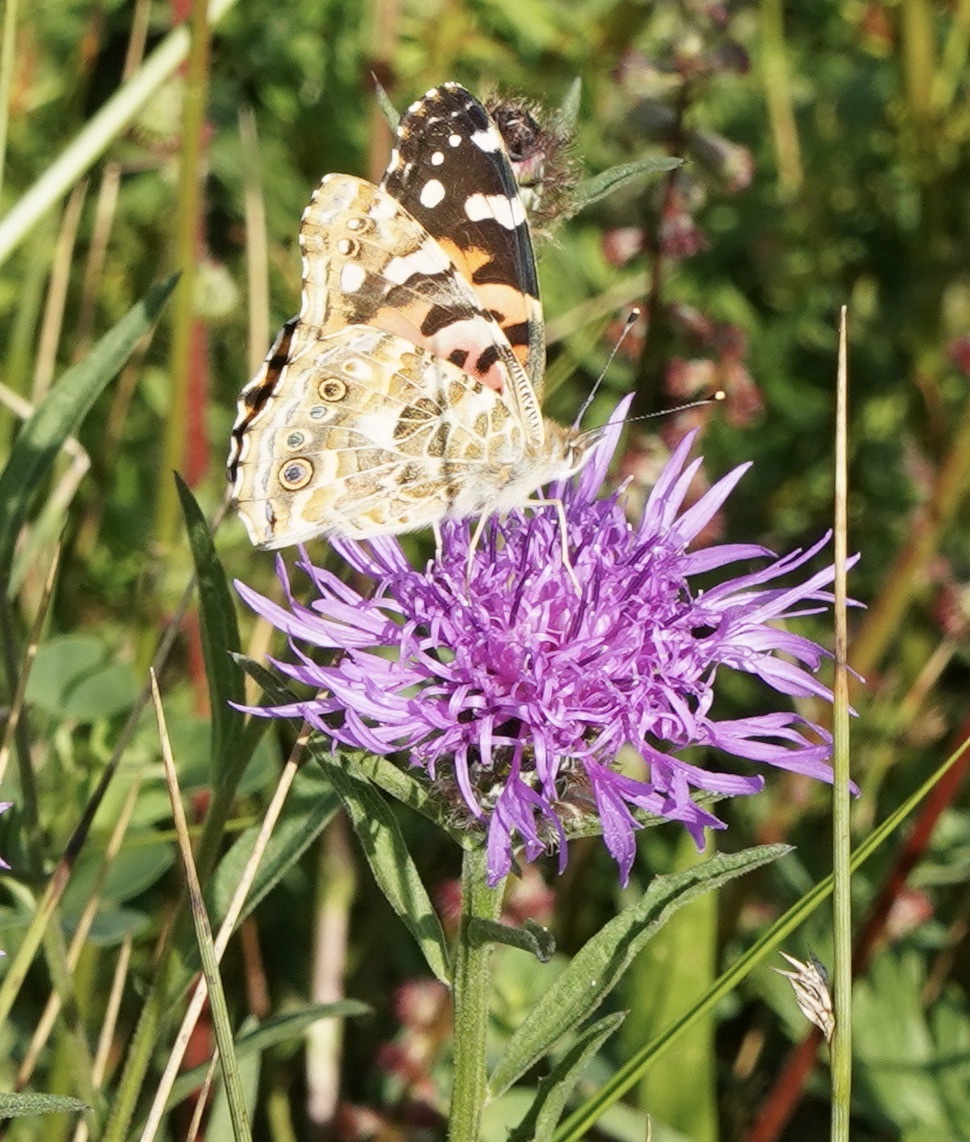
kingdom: Animalia
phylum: Arthropoda
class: Insecta
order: Lepidoptera
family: Nymphalidae
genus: Vanessa
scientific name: Vanessa cardui
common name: Painted lady
